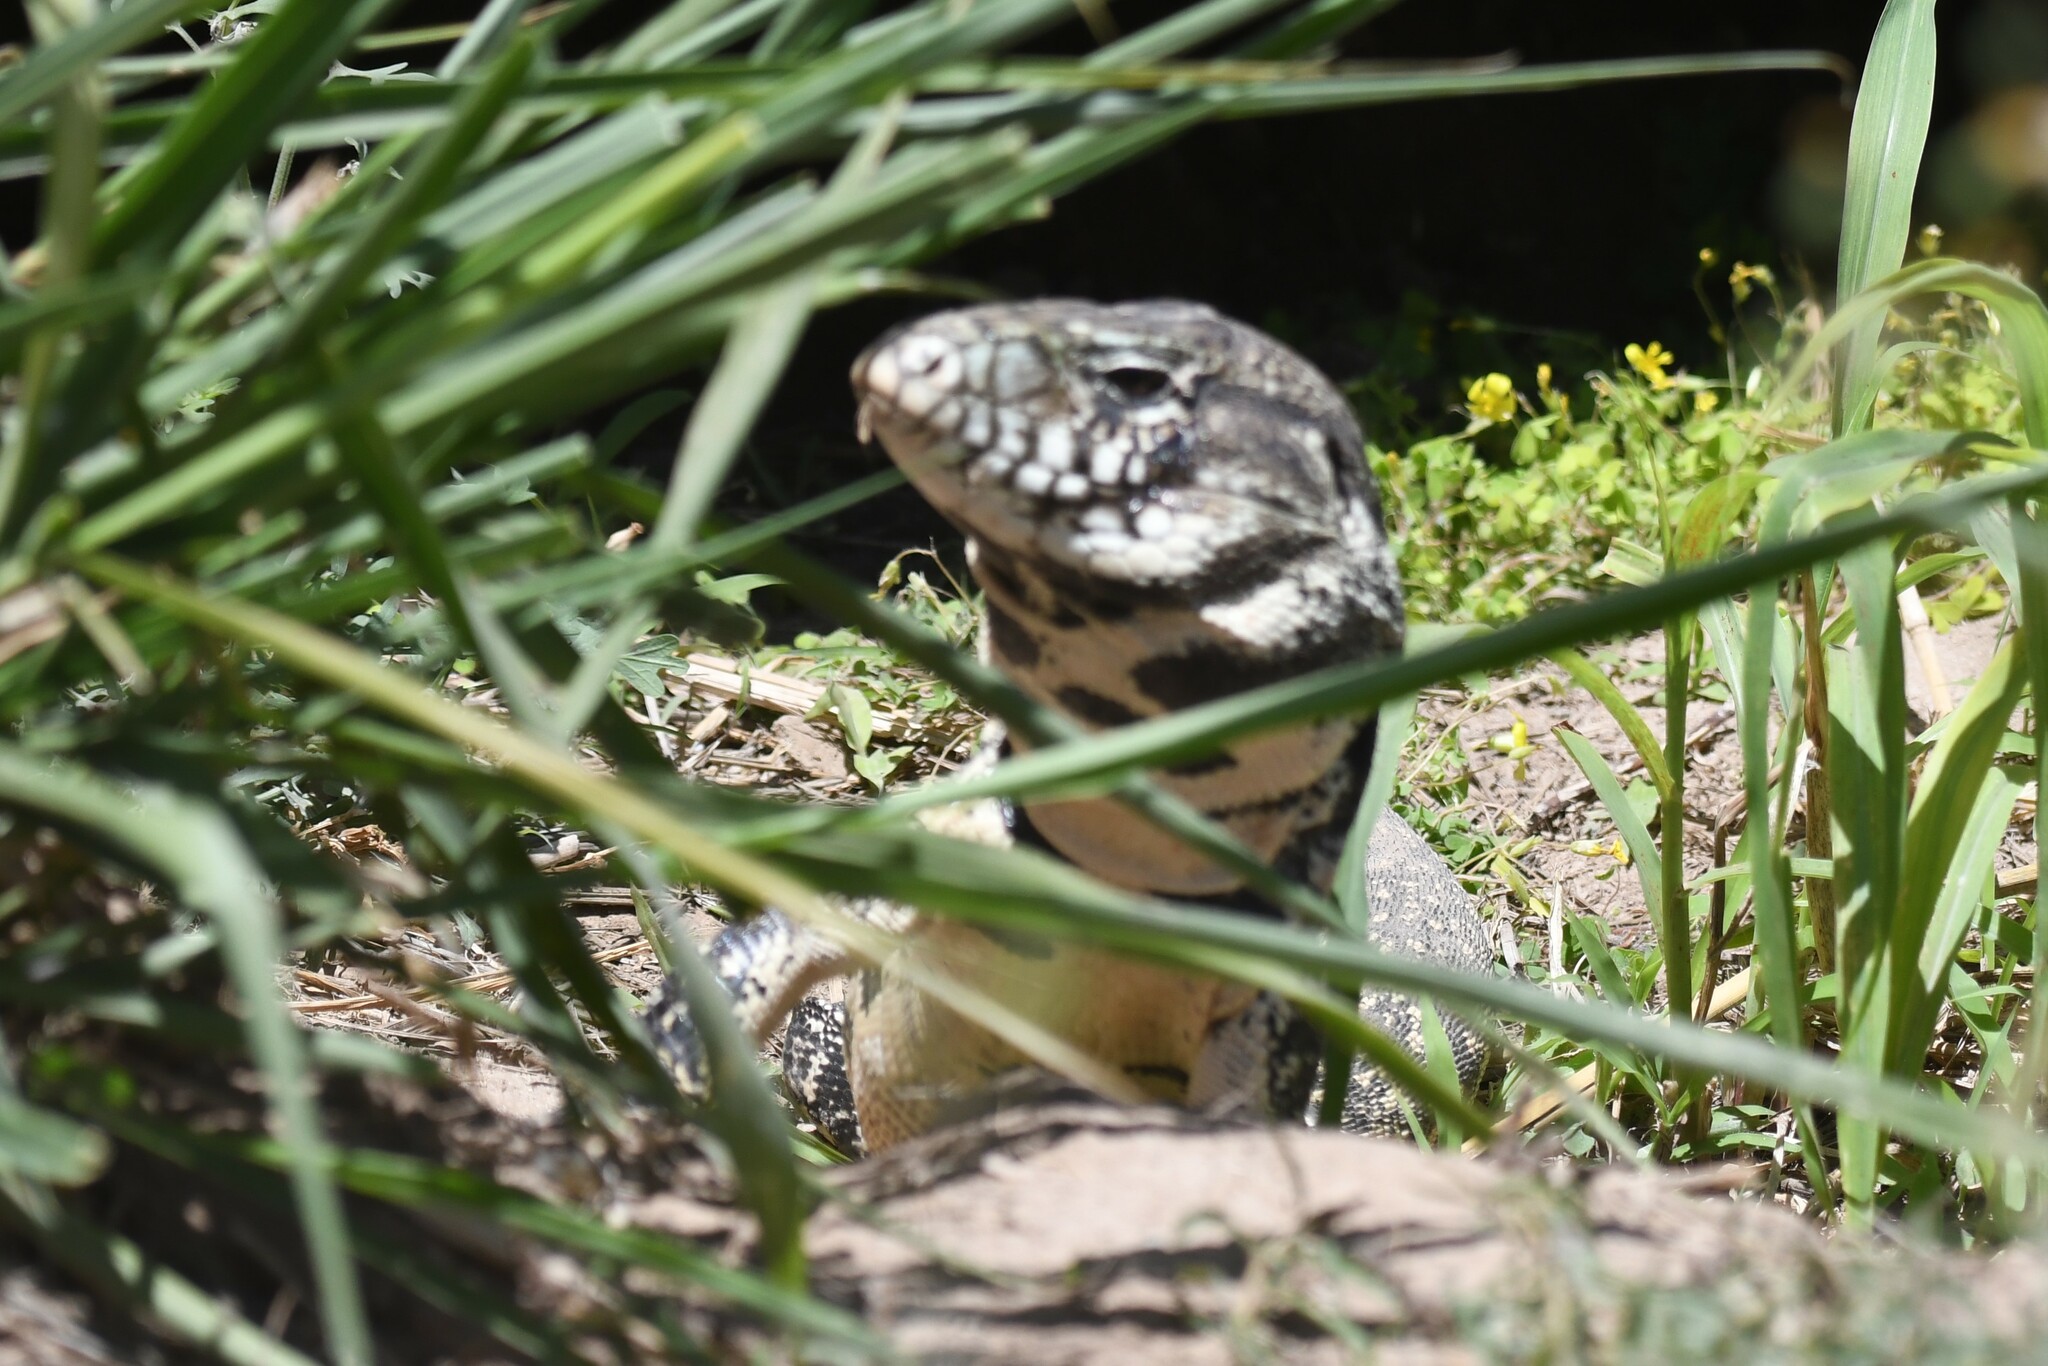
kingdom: Animalia
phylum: Chordata
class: Squamata
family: Teiidae
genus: Salvator
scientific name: Salvator merianae
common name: Argentine black and white tegu
